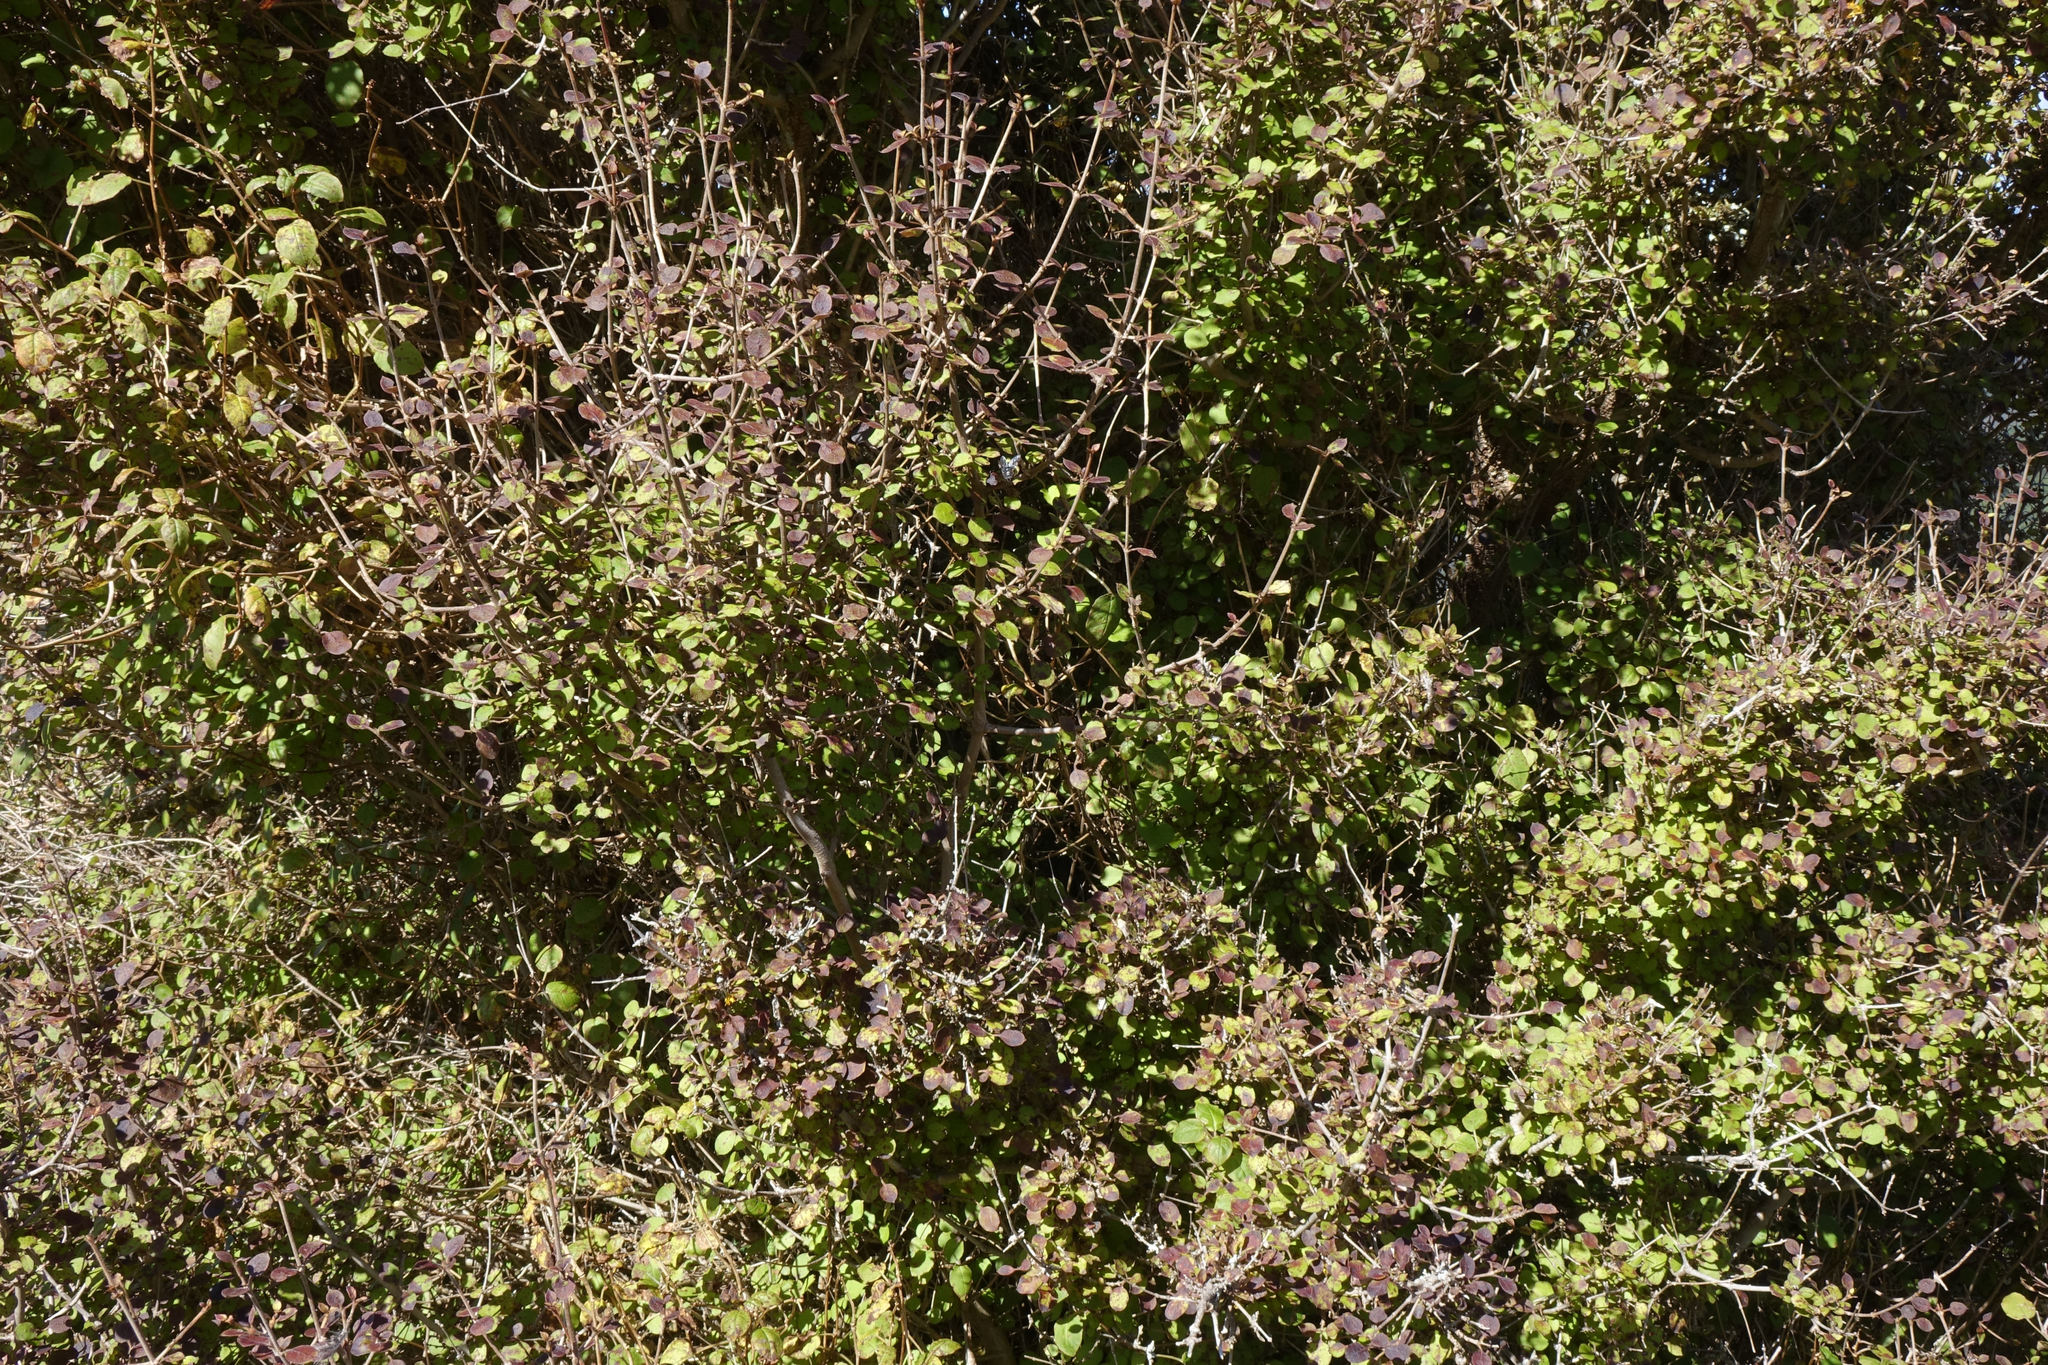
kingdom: Plantae
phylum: Tracheophyta
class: Magnoliopsida
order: Gentianales
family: Rubiaceae
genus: Coprosma
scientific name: Coprosma rotundifolia
